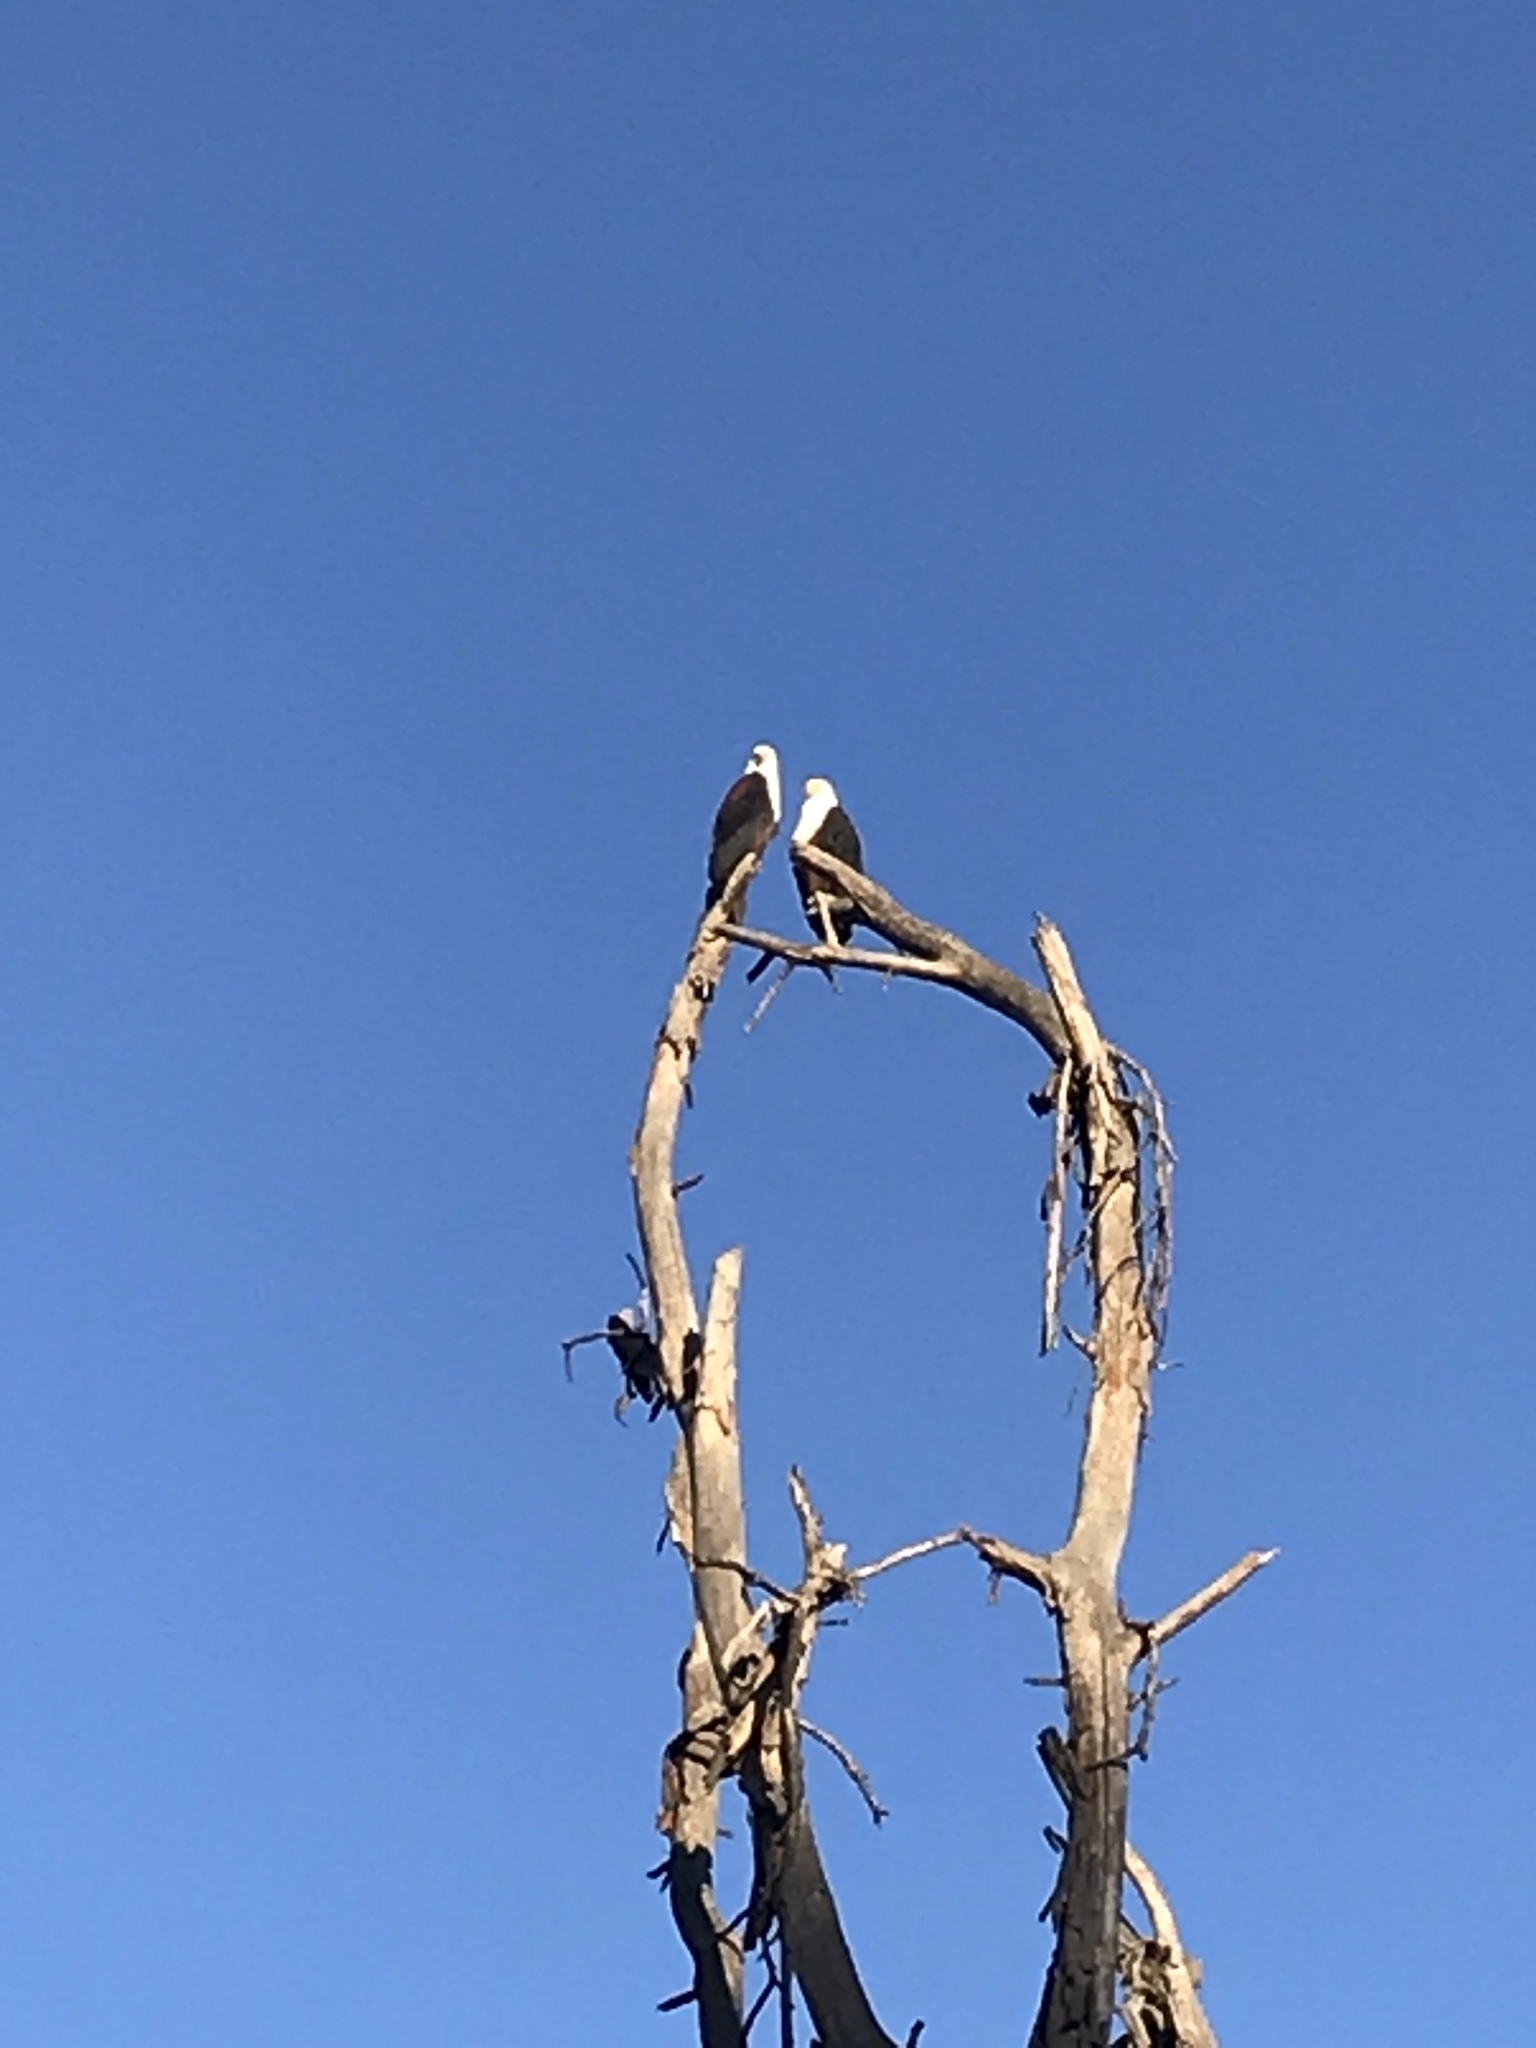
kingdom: Animalia
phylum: Chordata
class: Aves
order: Accipitriformes
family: Accipitridae
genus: Haliaeetus
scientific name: Haliaeetus vocifer
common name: African fish eagle
